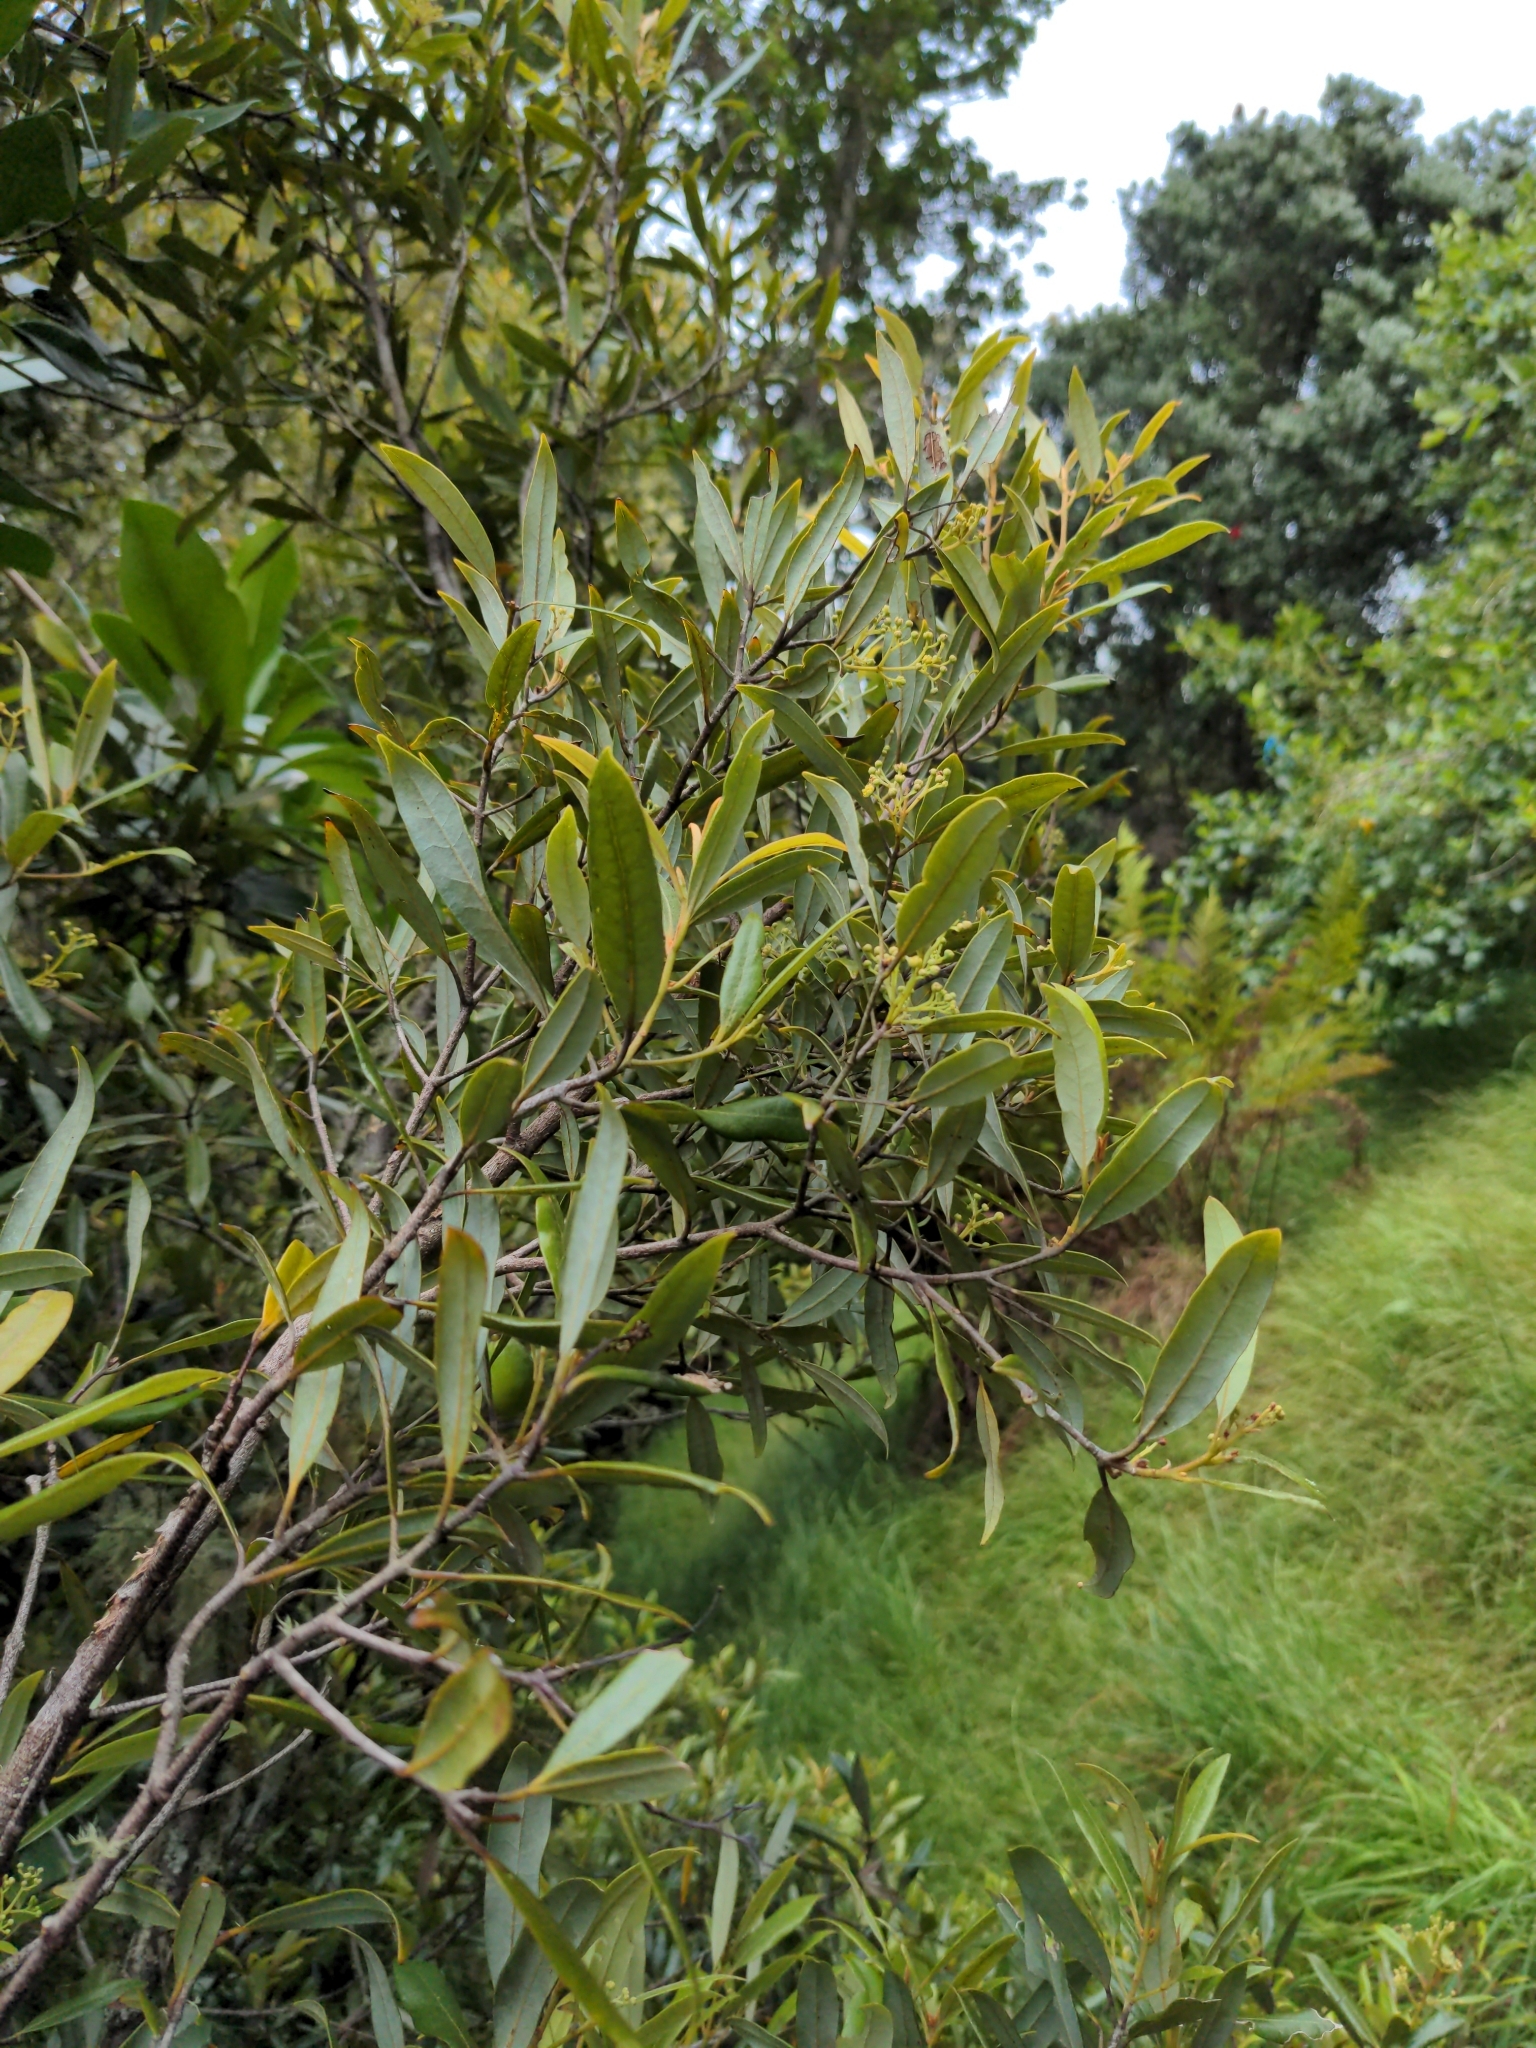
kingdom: Plantae
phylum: Tracheophyta
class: Magnoliopsida
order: Laurales
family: Lauraceae
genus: Beilschmiedia
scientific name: Beilschmiedia tawa
